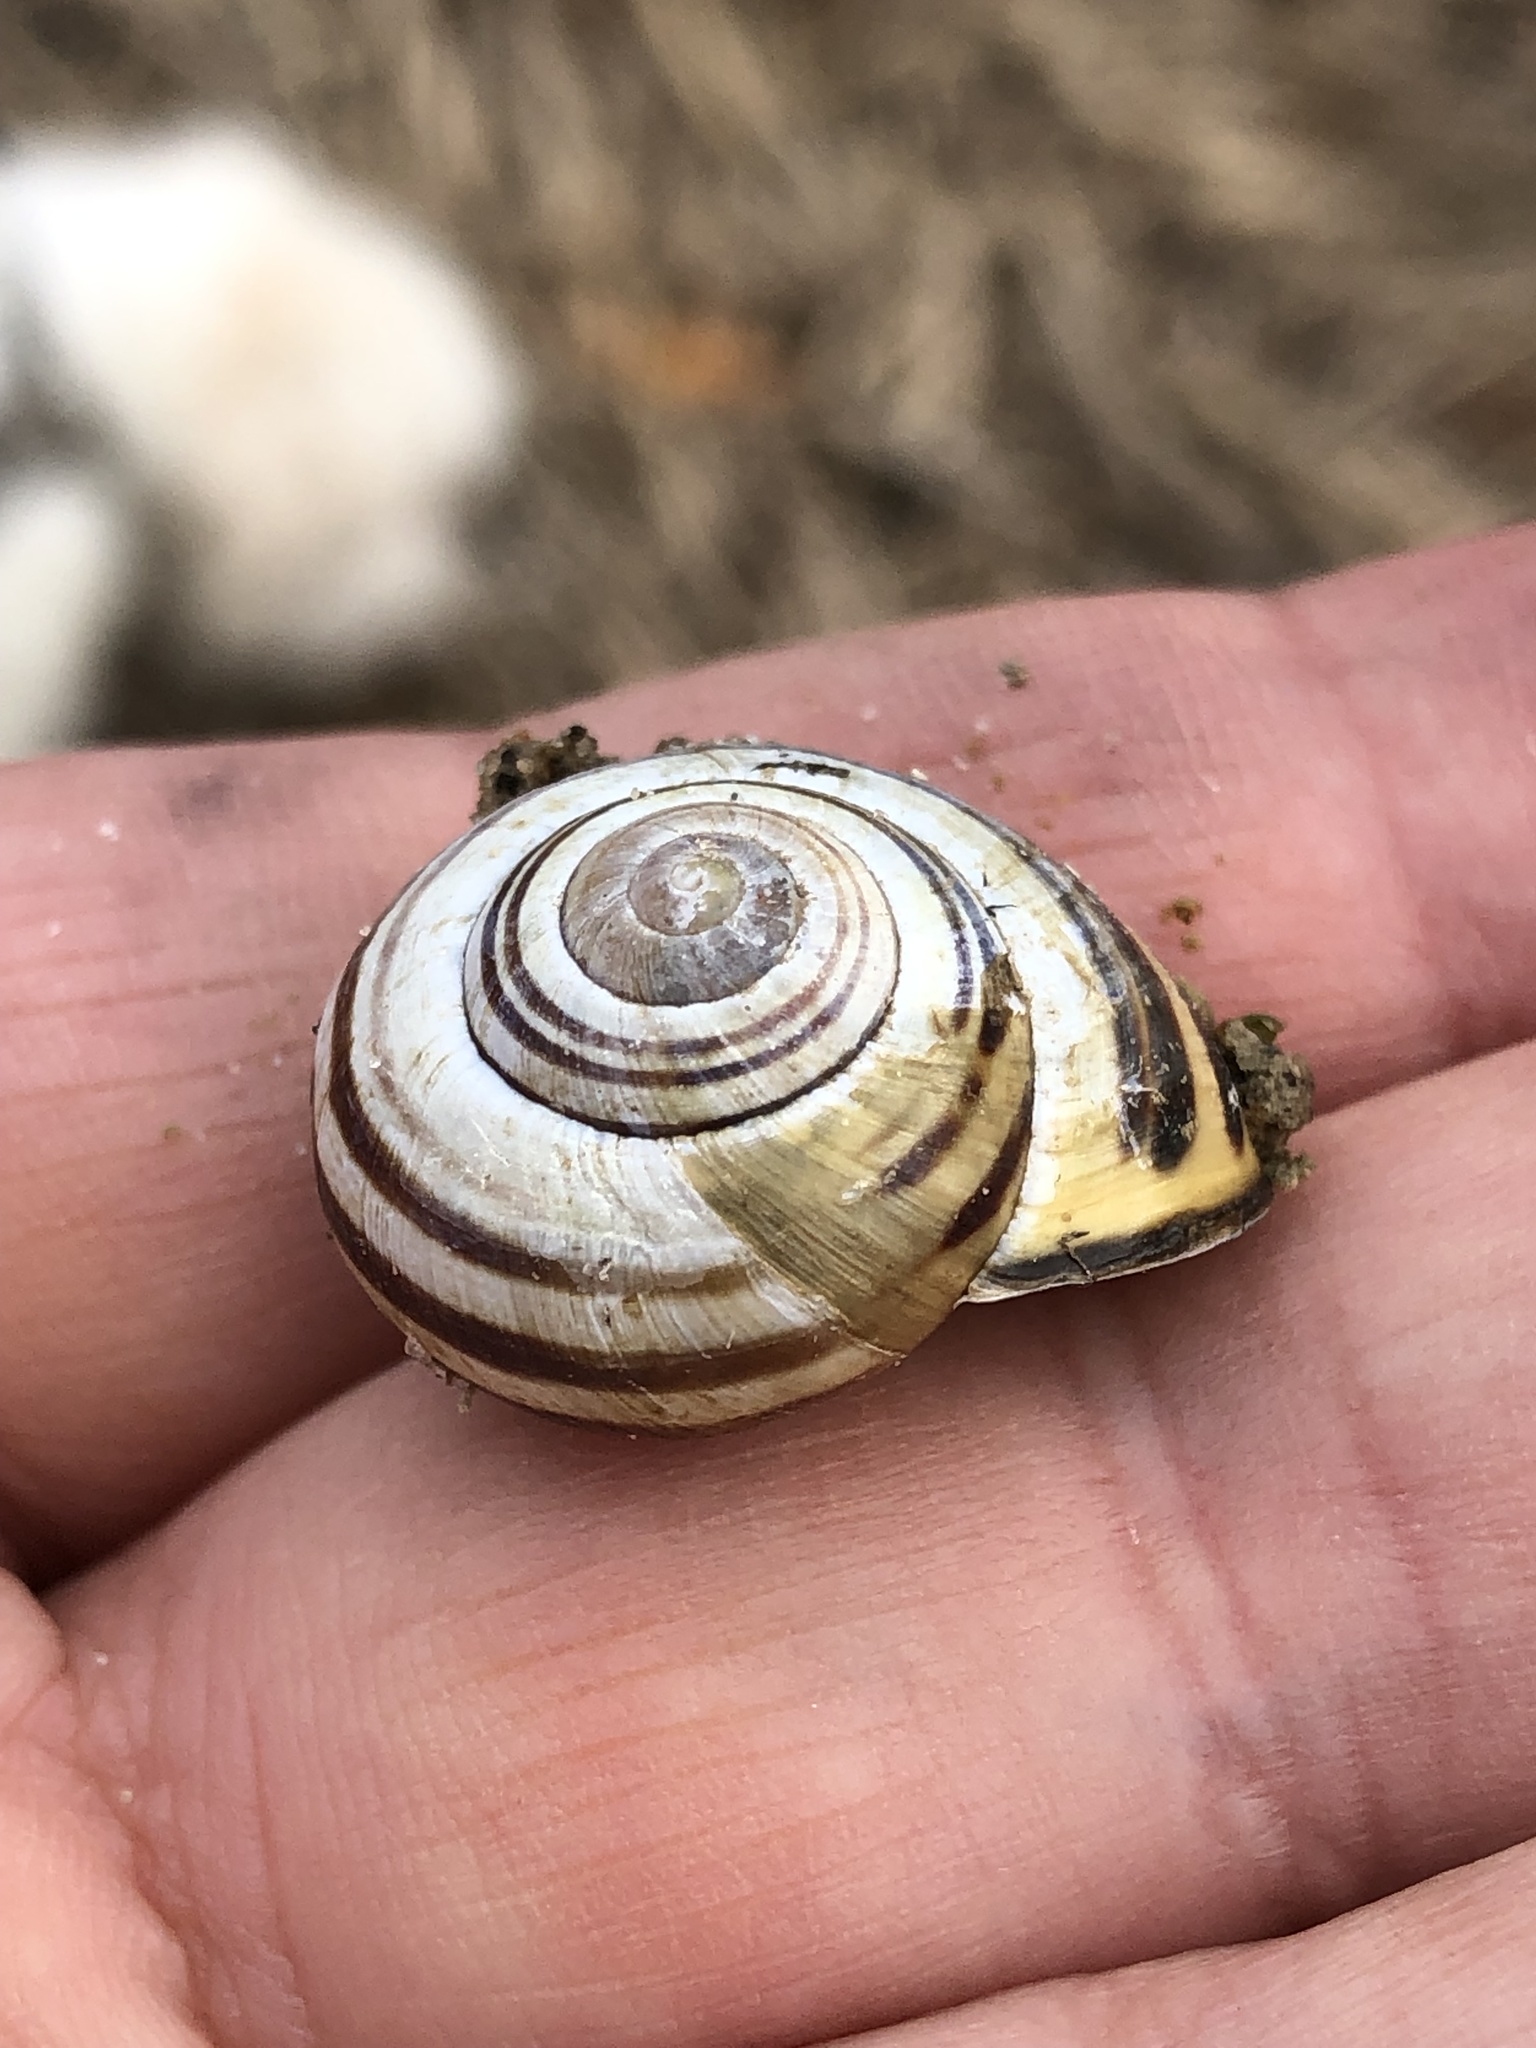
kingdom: Animalia
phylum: Mollusca
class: Gastropoda
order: Stylommatophora
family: Helicidae
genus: Cepaea
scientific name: Cepaea nemoralis
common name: Grovesnail
